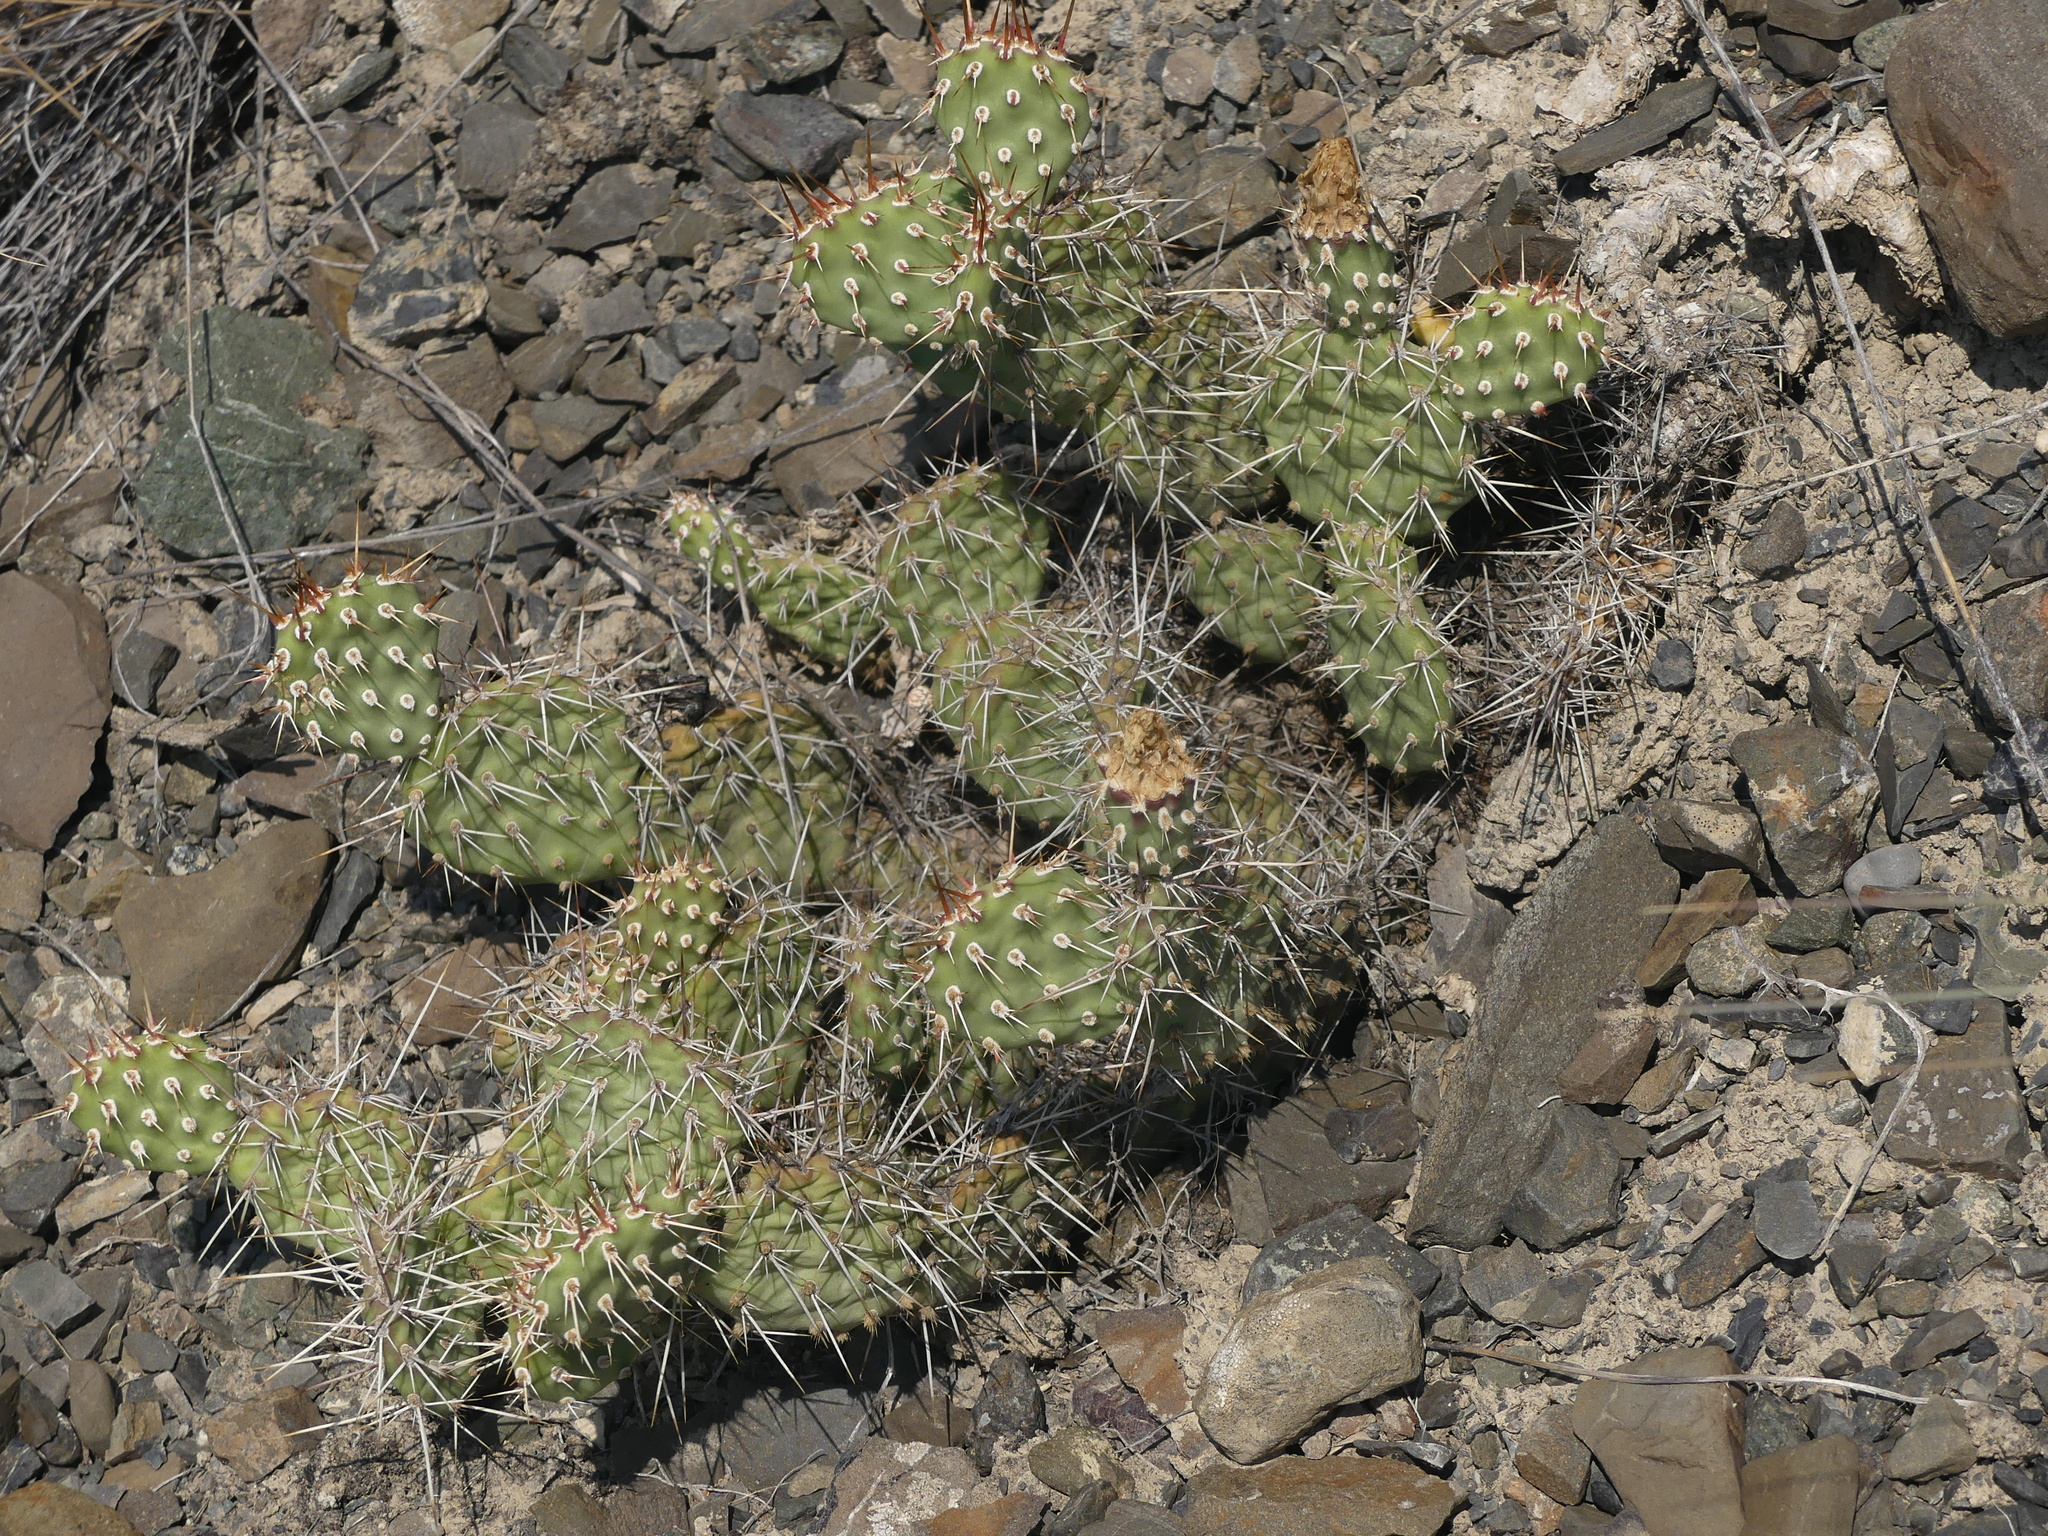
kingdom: Plantae
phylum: Tracheophyta
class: Magnoliopsida
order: Caryophyllales
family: Cactaceae
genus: Opuntia
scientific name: Opuntia columbiana
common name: Columbia prickly-pear
